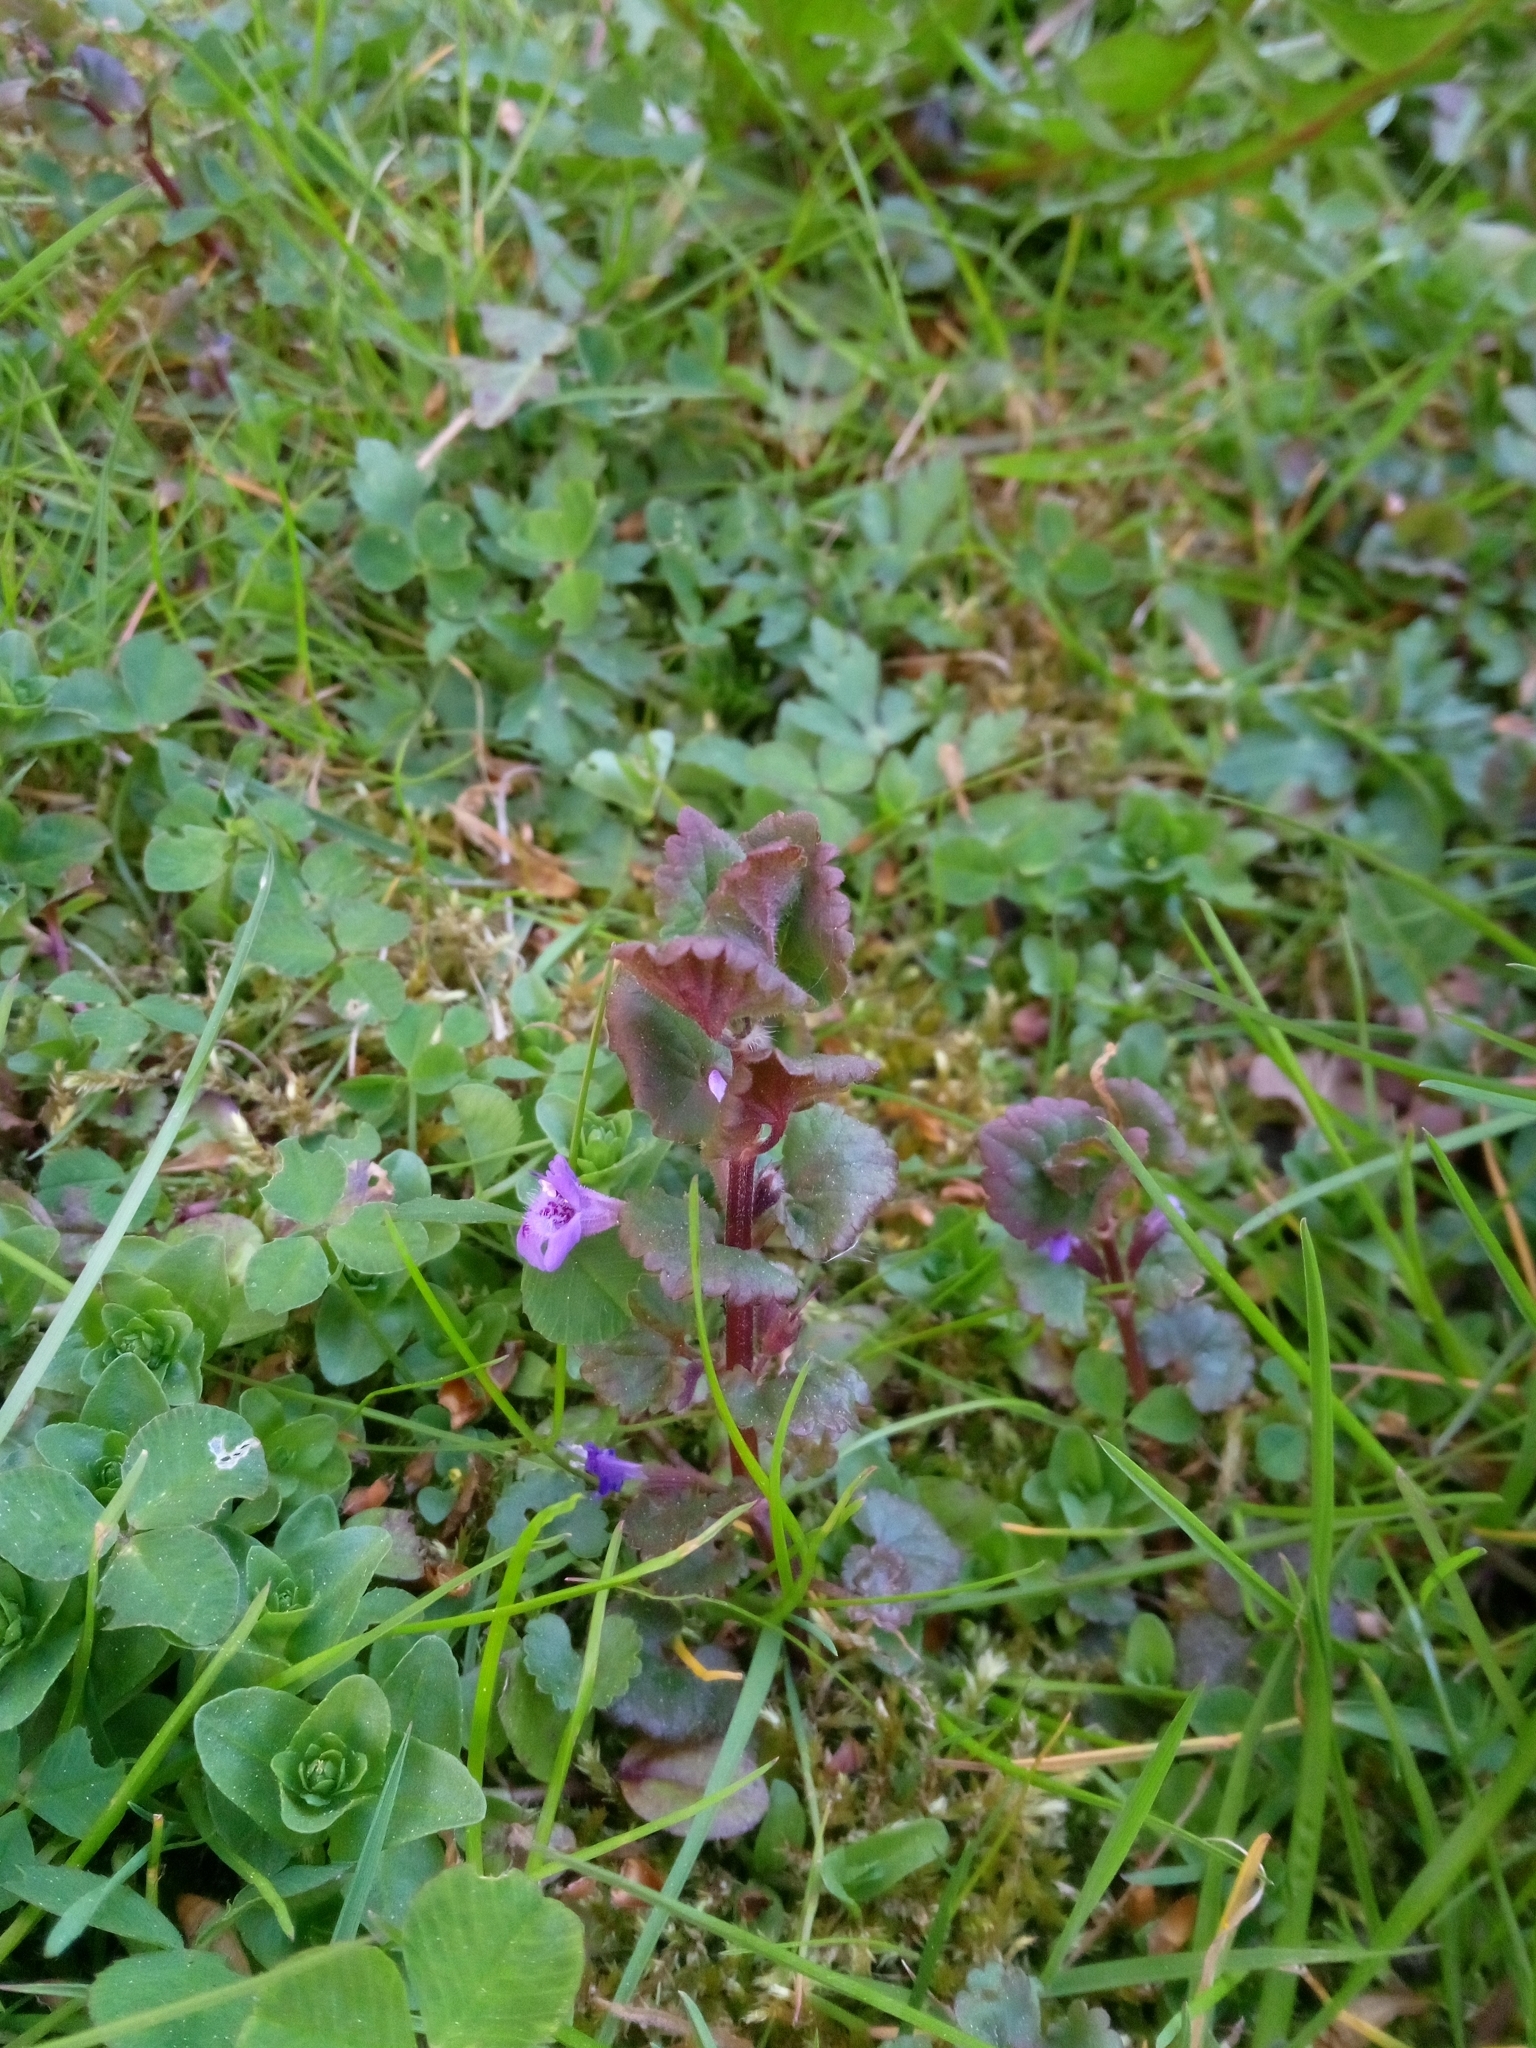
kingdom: Plantae
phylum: Tracheophyta
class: Magnoliopsida
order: Lamiales
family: Lamiaceae
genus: Glechoma
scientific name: Glechoma hederacea
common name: Ground ivy
